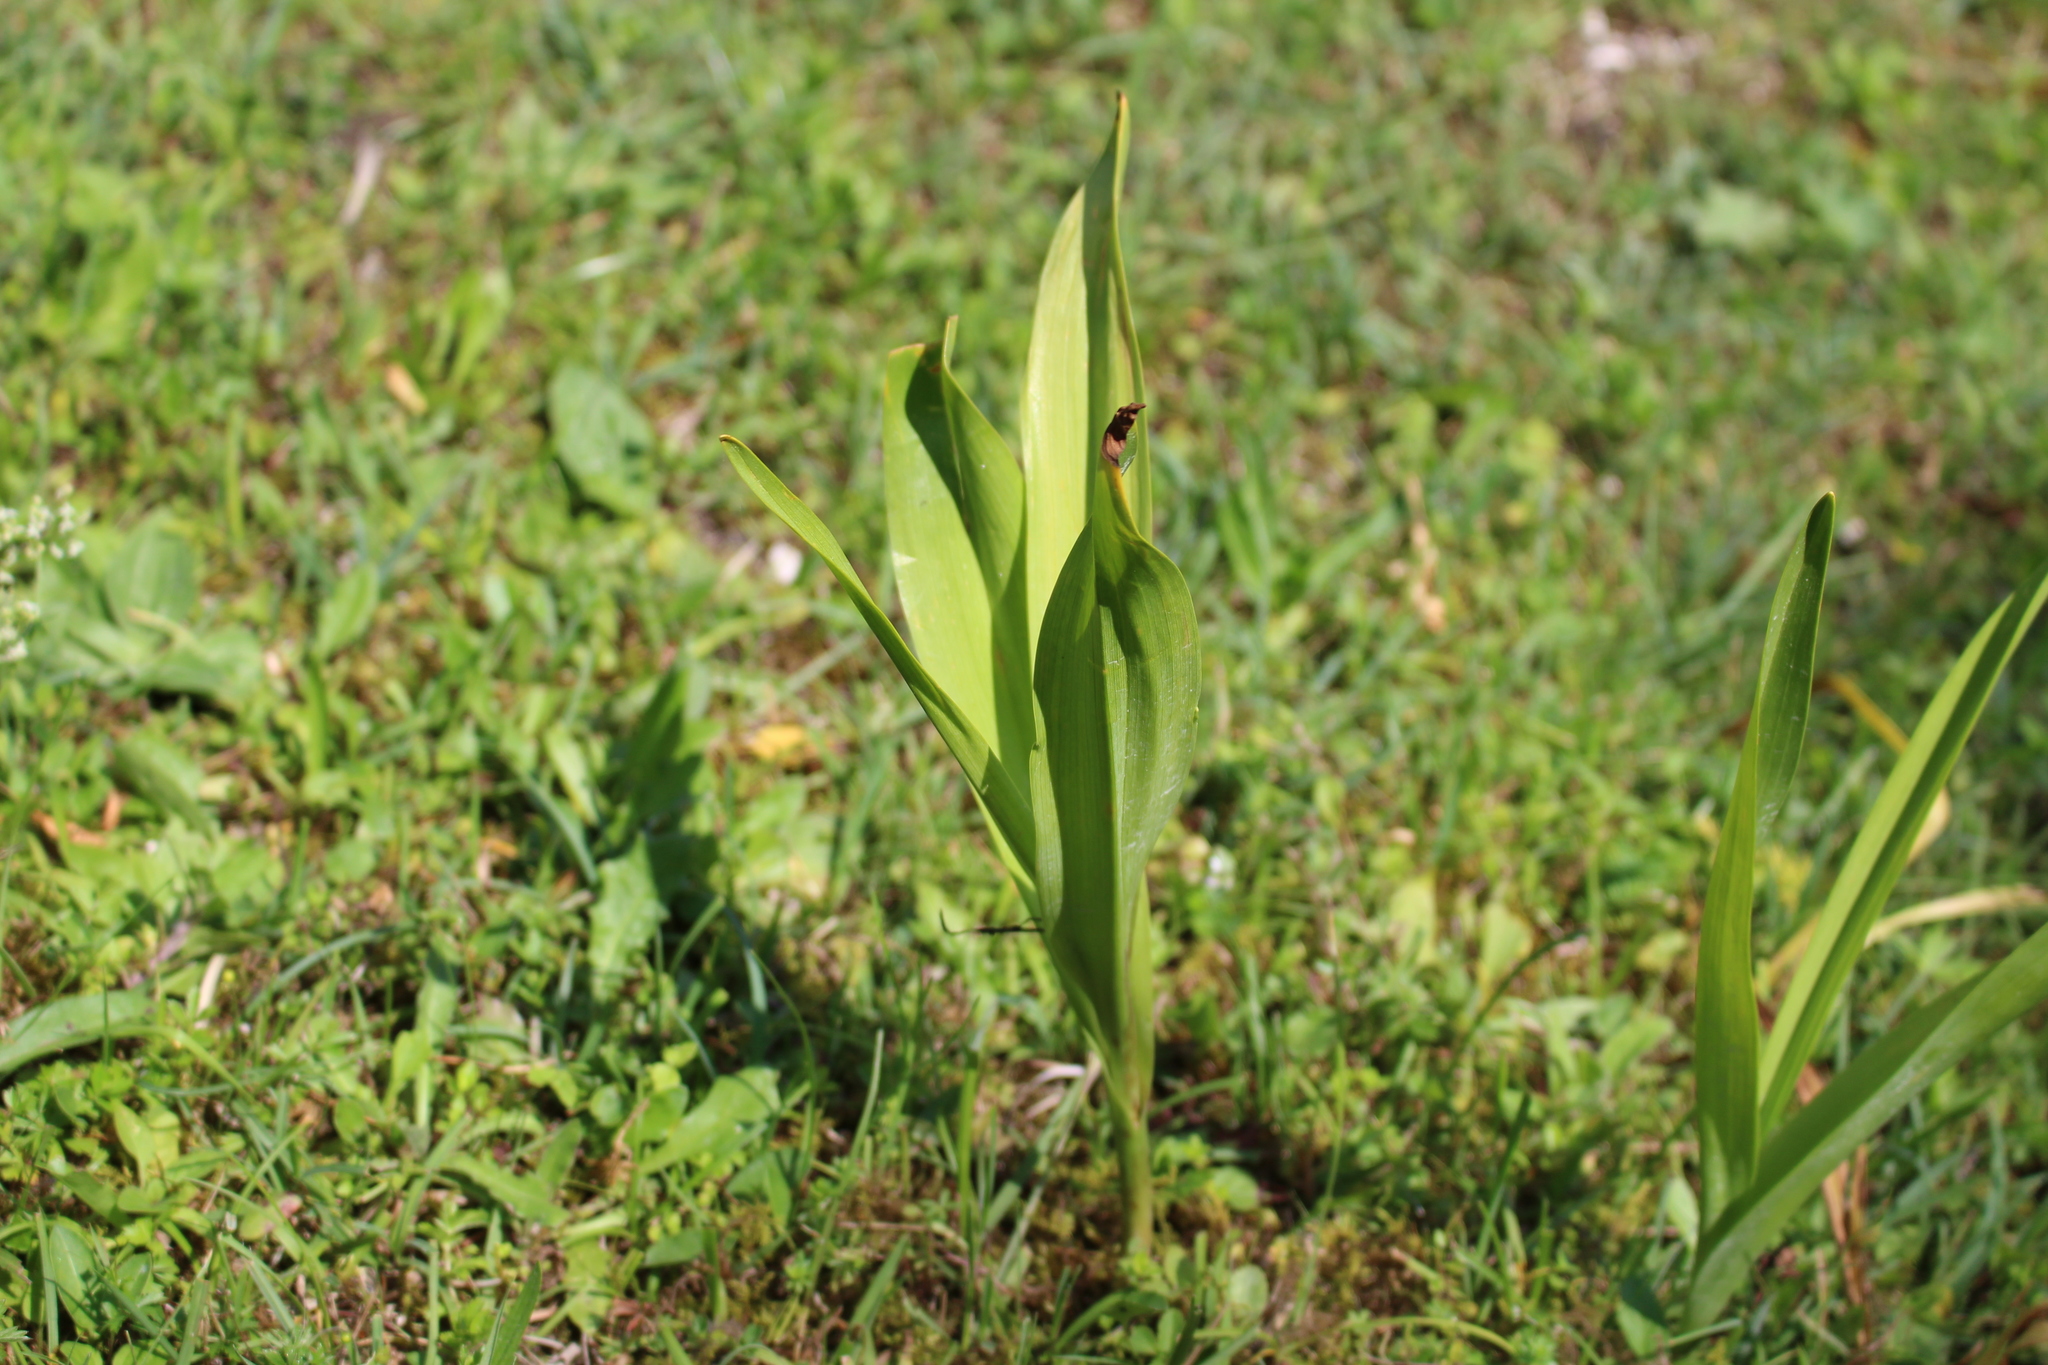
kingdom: Plantae
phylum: Tracheophyta
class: Liliopsida
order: Liliales
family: Colchicaceae
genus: Colchicum
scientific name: Colchicum autumnale
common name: Autumn crocus
